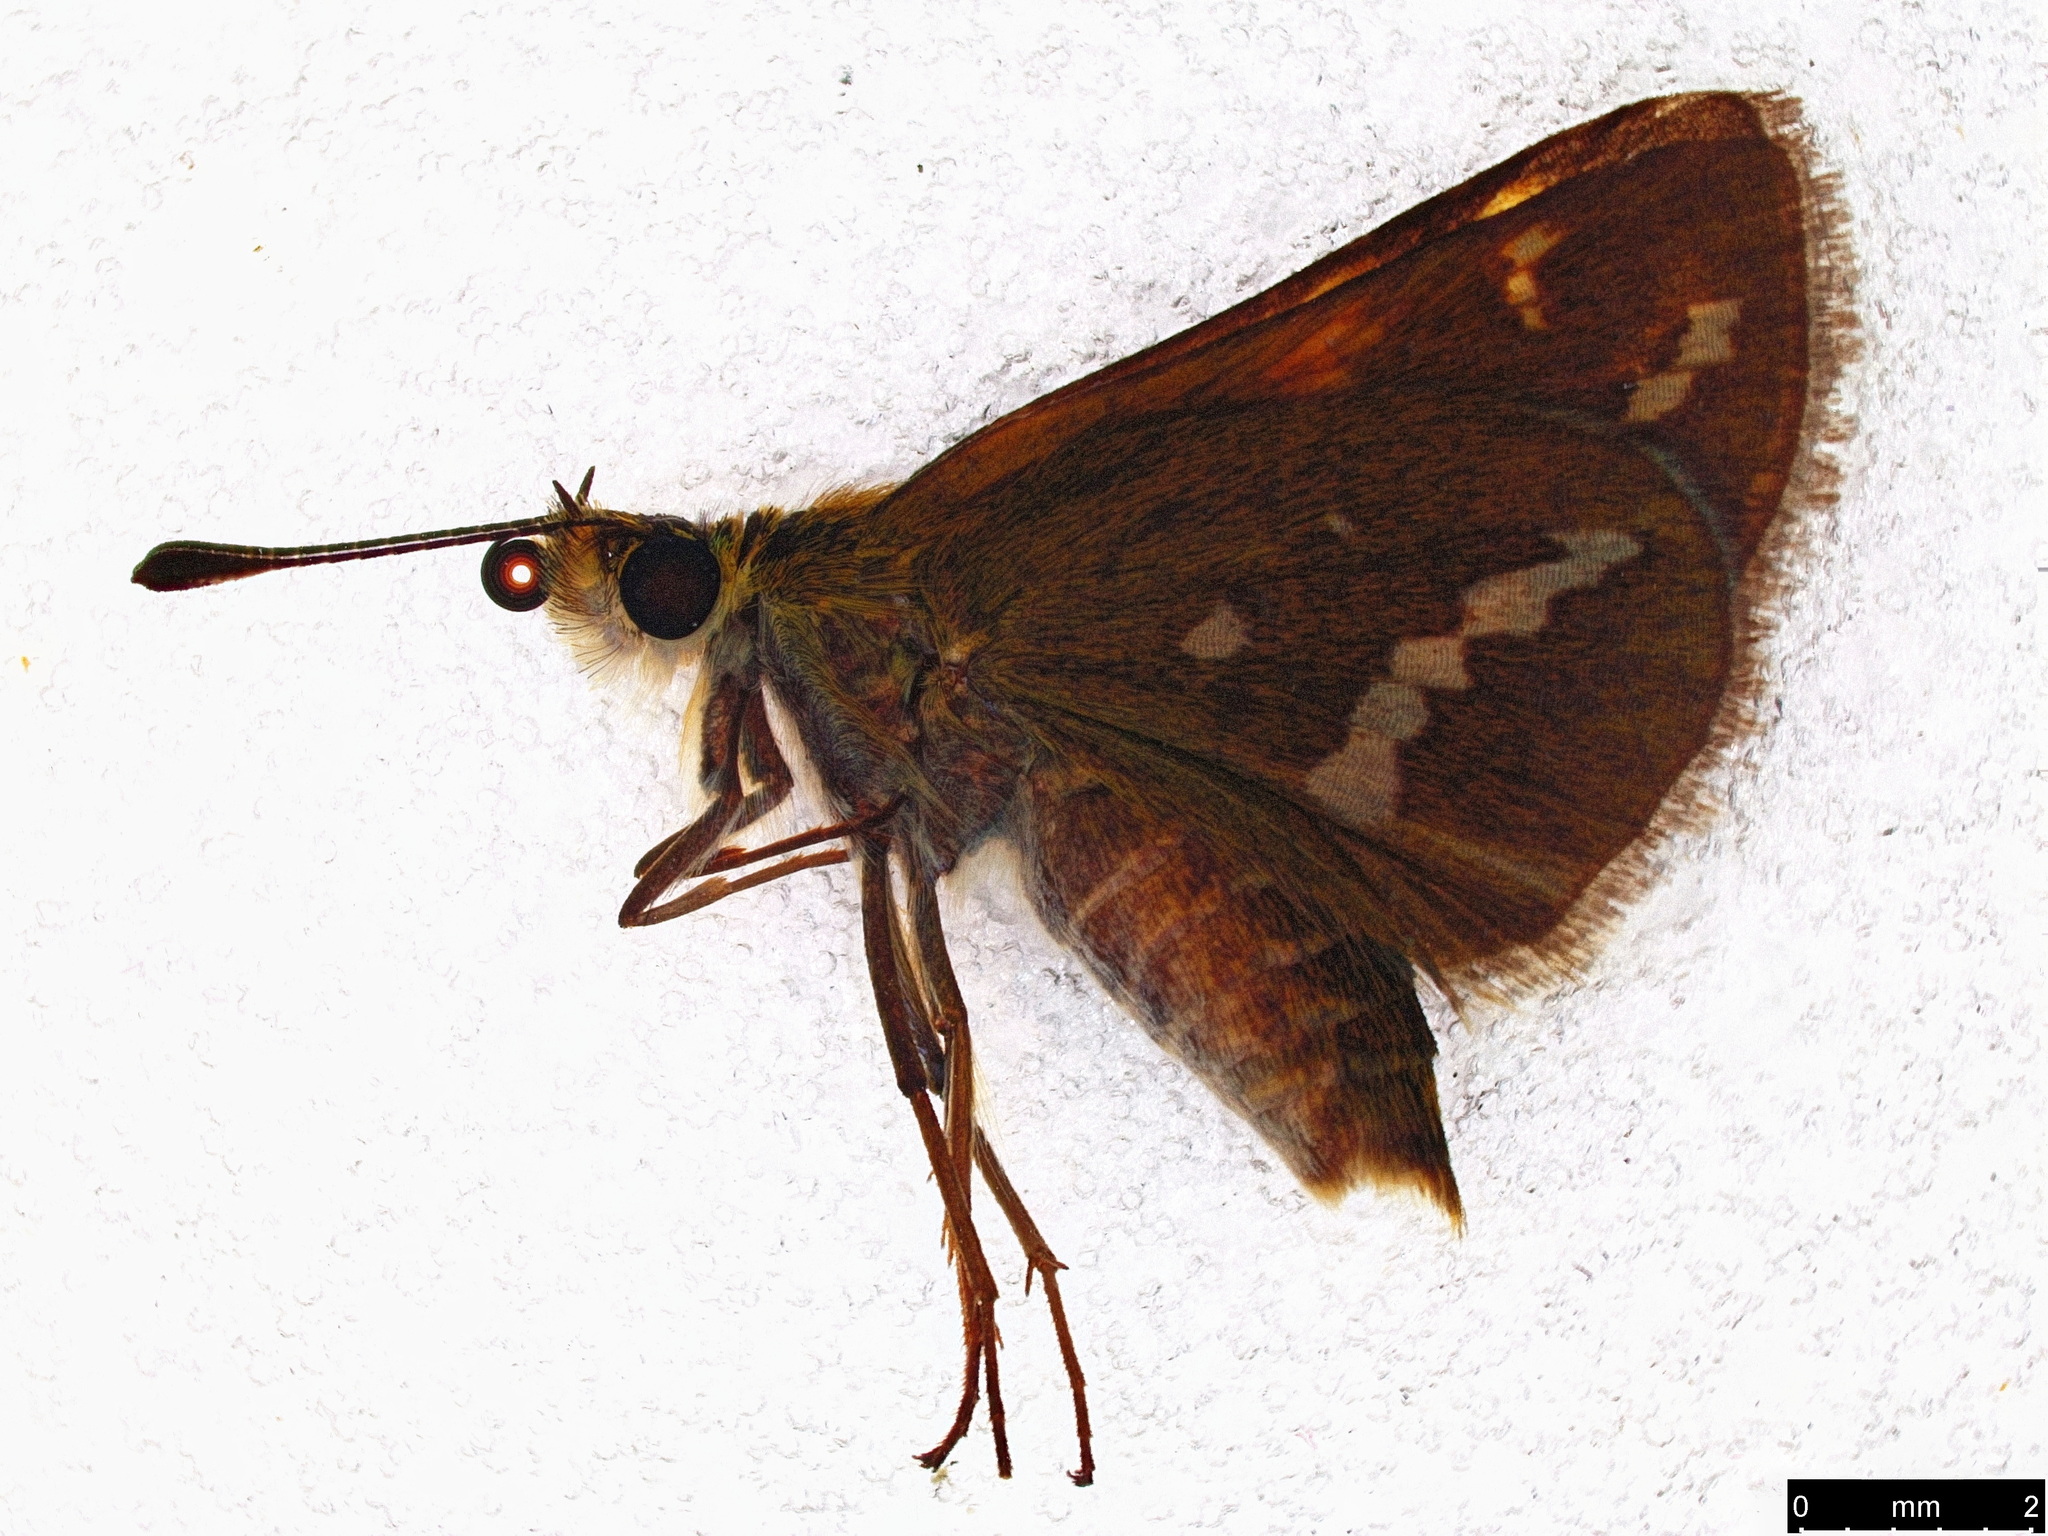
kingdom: Animalia
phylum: Arthropoda
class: Insecta
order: Lepidoptera
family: Hesperiidae
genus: Taractrocera
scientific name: Taractrocera papyria
